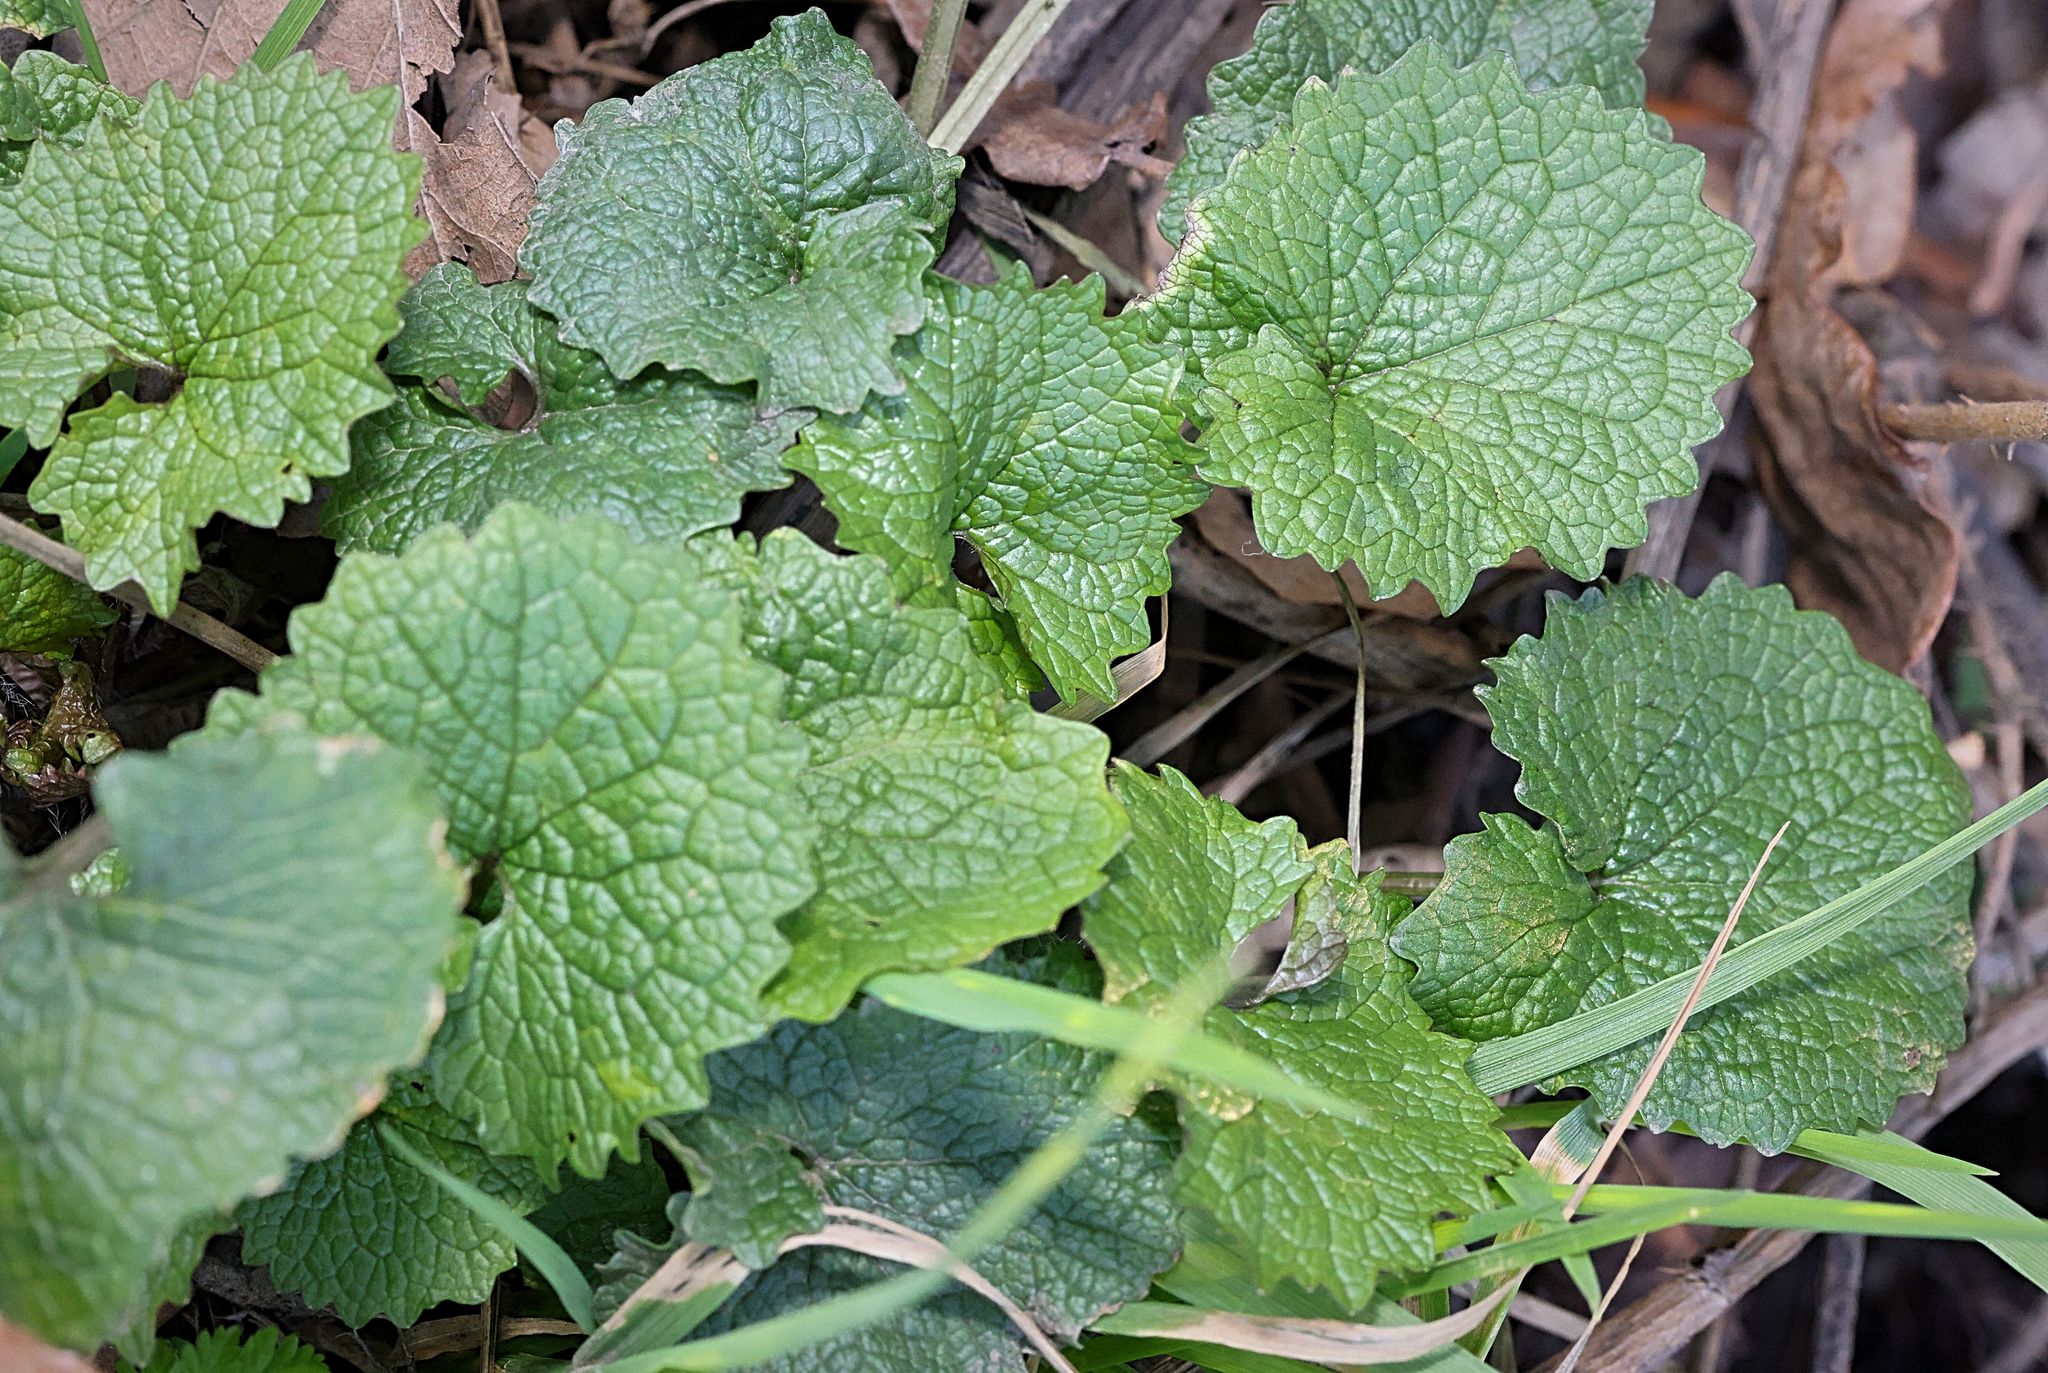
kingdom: Plantae
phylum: Tracheophyta
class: Magnoliopsida
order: Brassicales
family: Brassicaceae
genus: Alliaria
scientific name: Alliaria petiolata
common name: Garlic mustard
